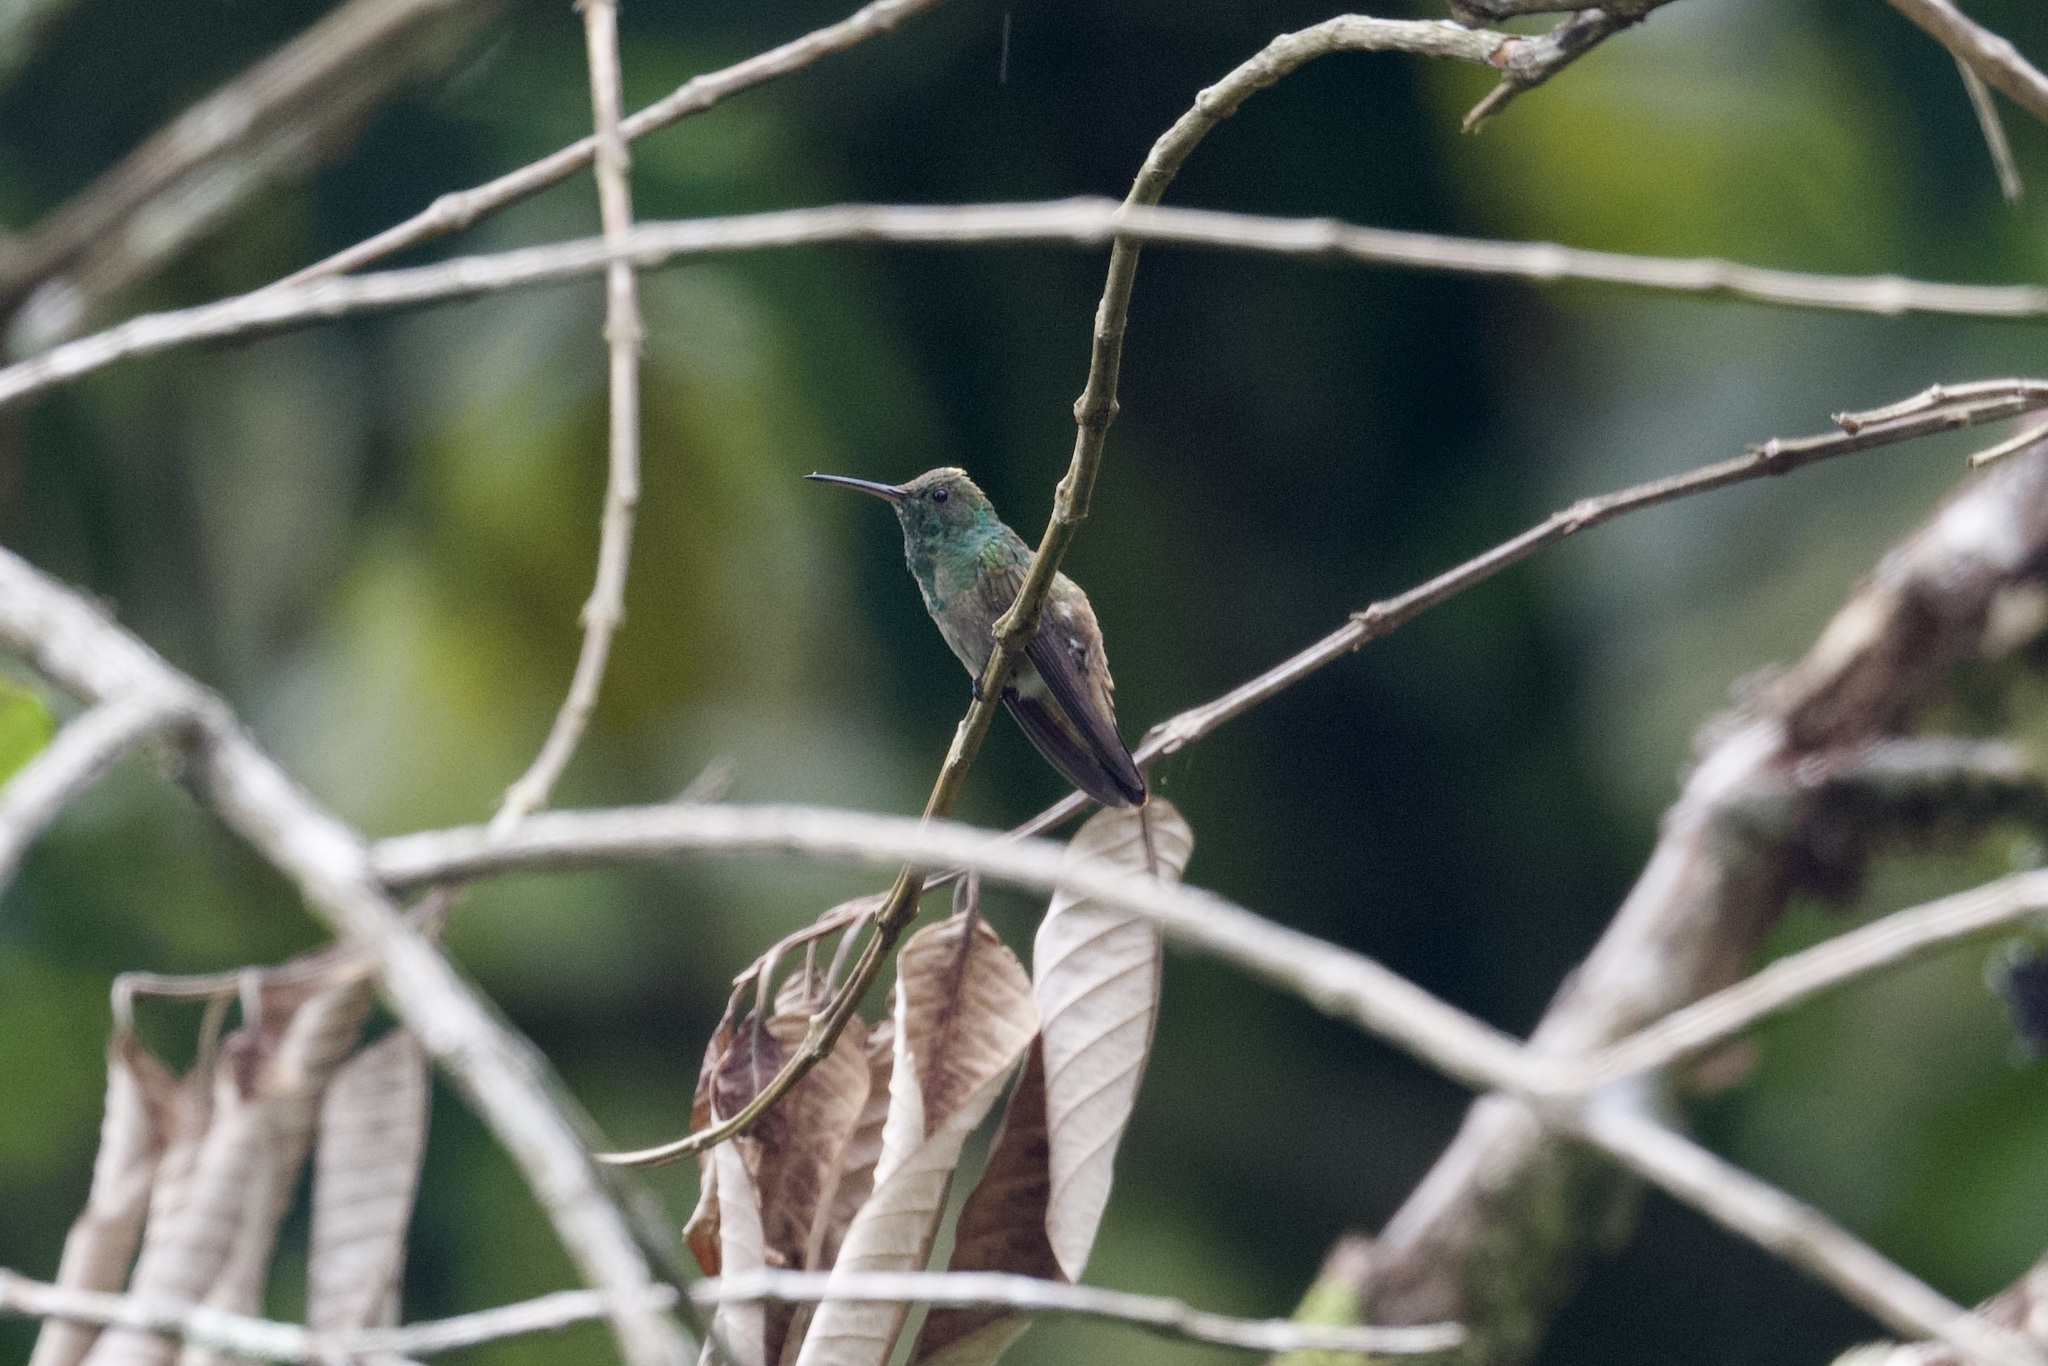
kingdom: Animalia
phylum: Chordata
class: Aves
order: Apodiformes
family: Trochilidae
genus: Saucerottia
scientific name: Saucerottia viridigaster
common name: Green-bellied hummingbird
